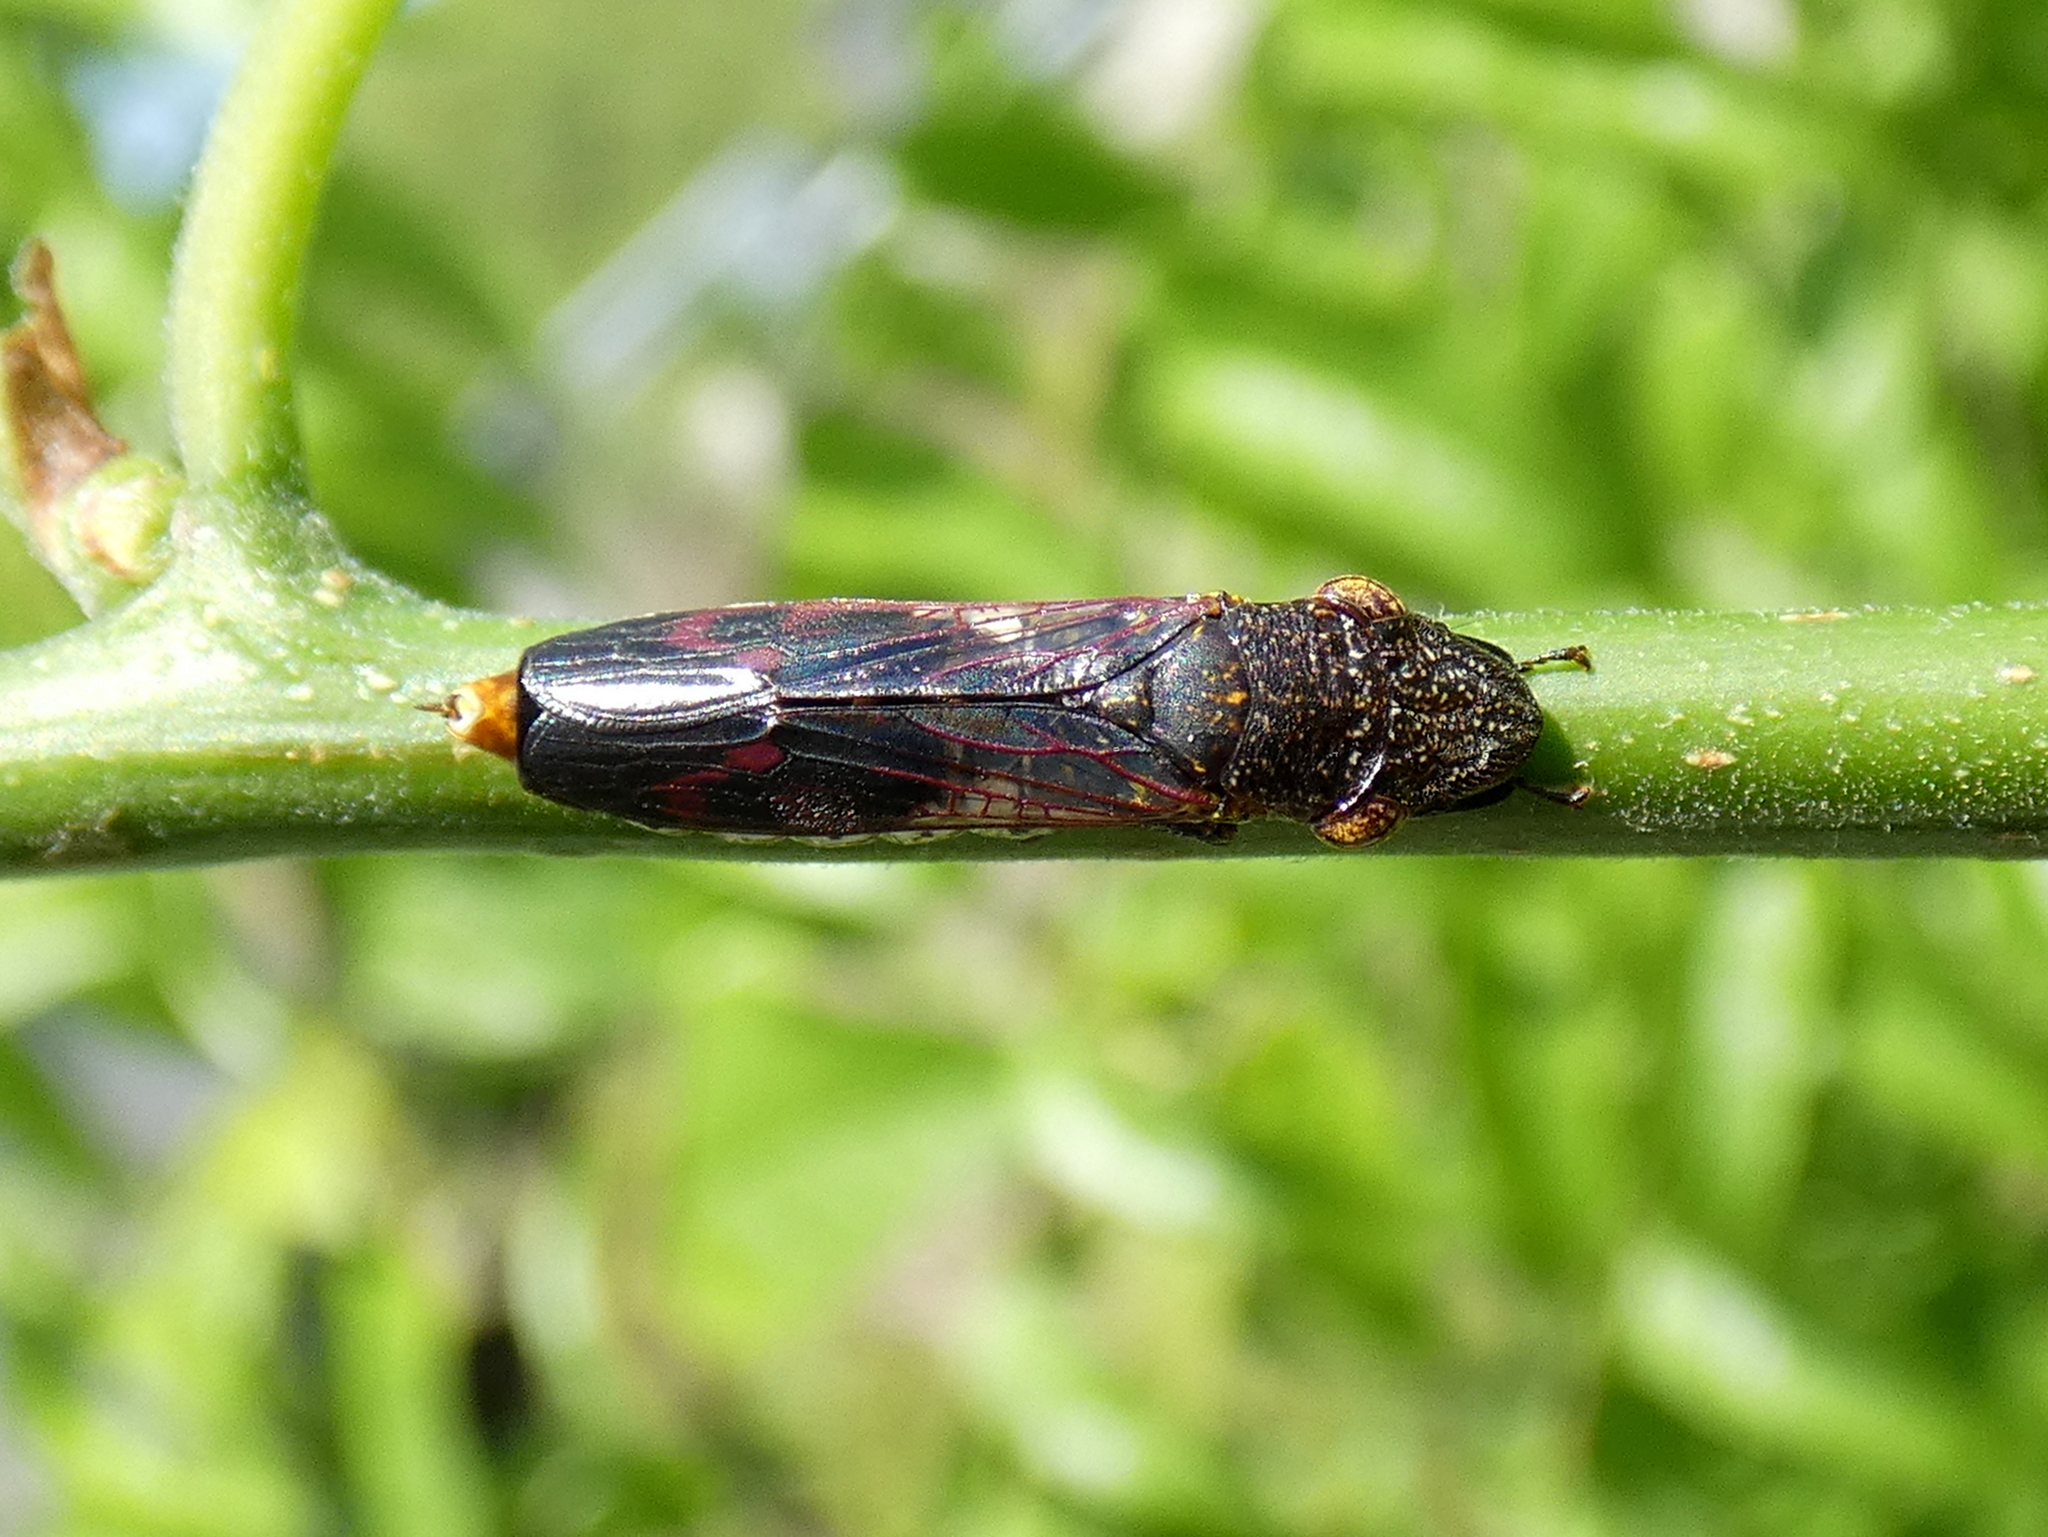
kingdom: Animalia
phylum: Arthropoda
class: Insecta
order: Hemiptera
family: Cicadellidae
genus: Homalodisca
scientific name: Homalodisca vitripennis
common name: Glassy-winged sharpshooter
